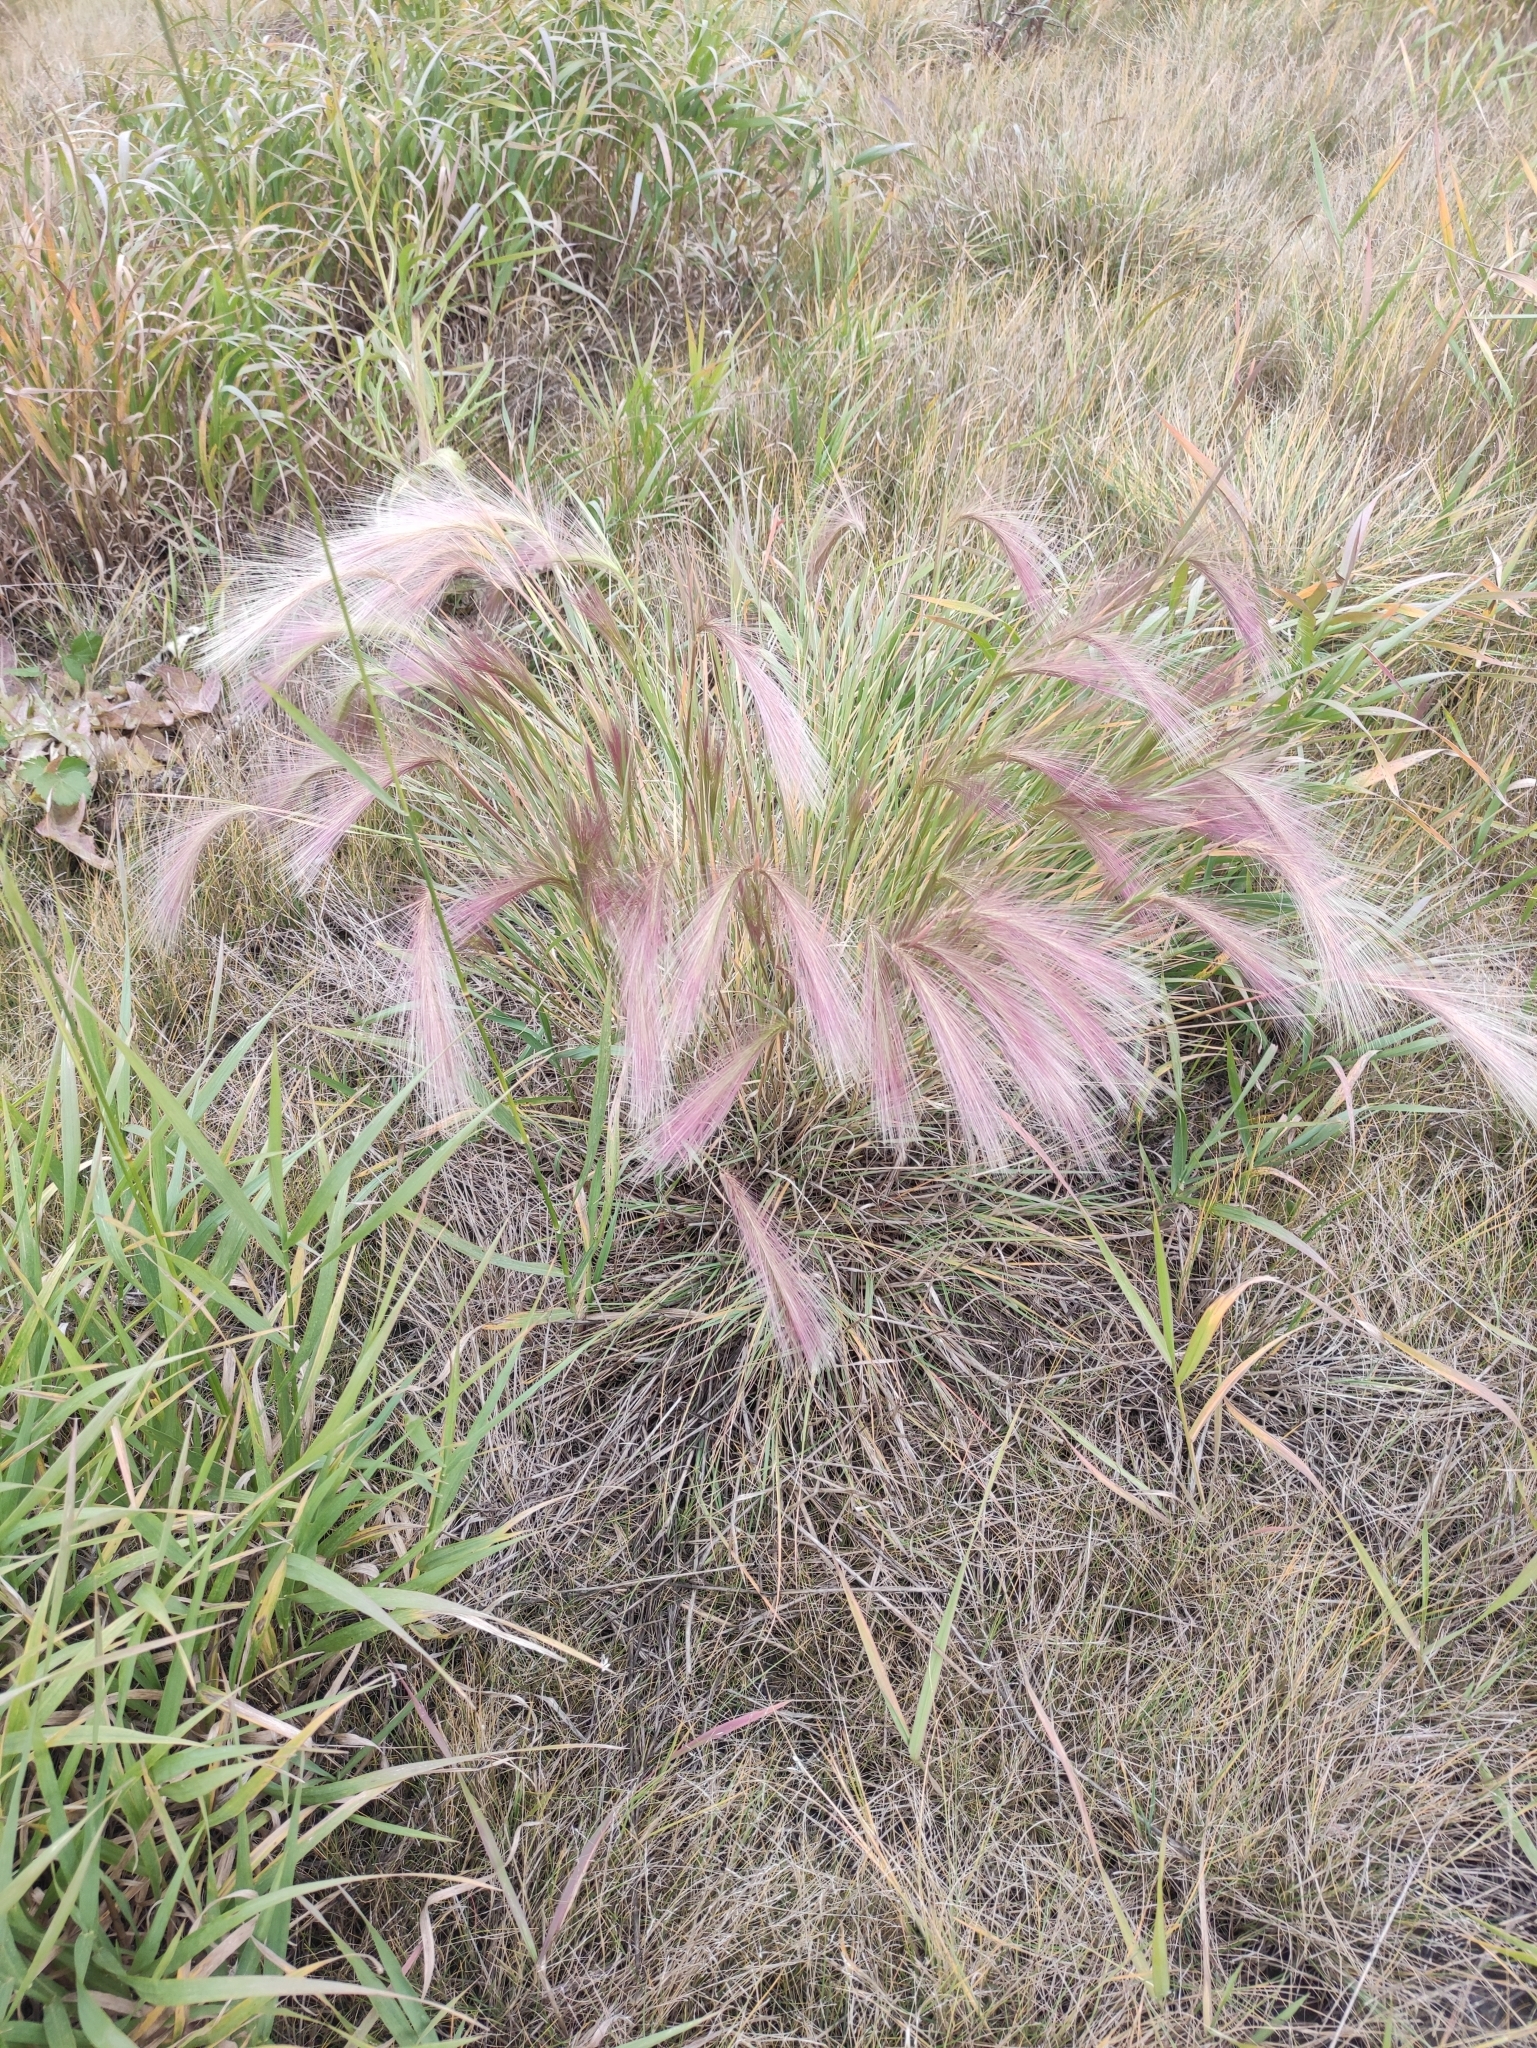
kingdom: Plantae
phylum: Tracheophyta
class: Liliopsida
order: Poales
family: Poaceae
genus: Hordeum
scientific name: Hordeum jubatum
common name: Foxtail barley
